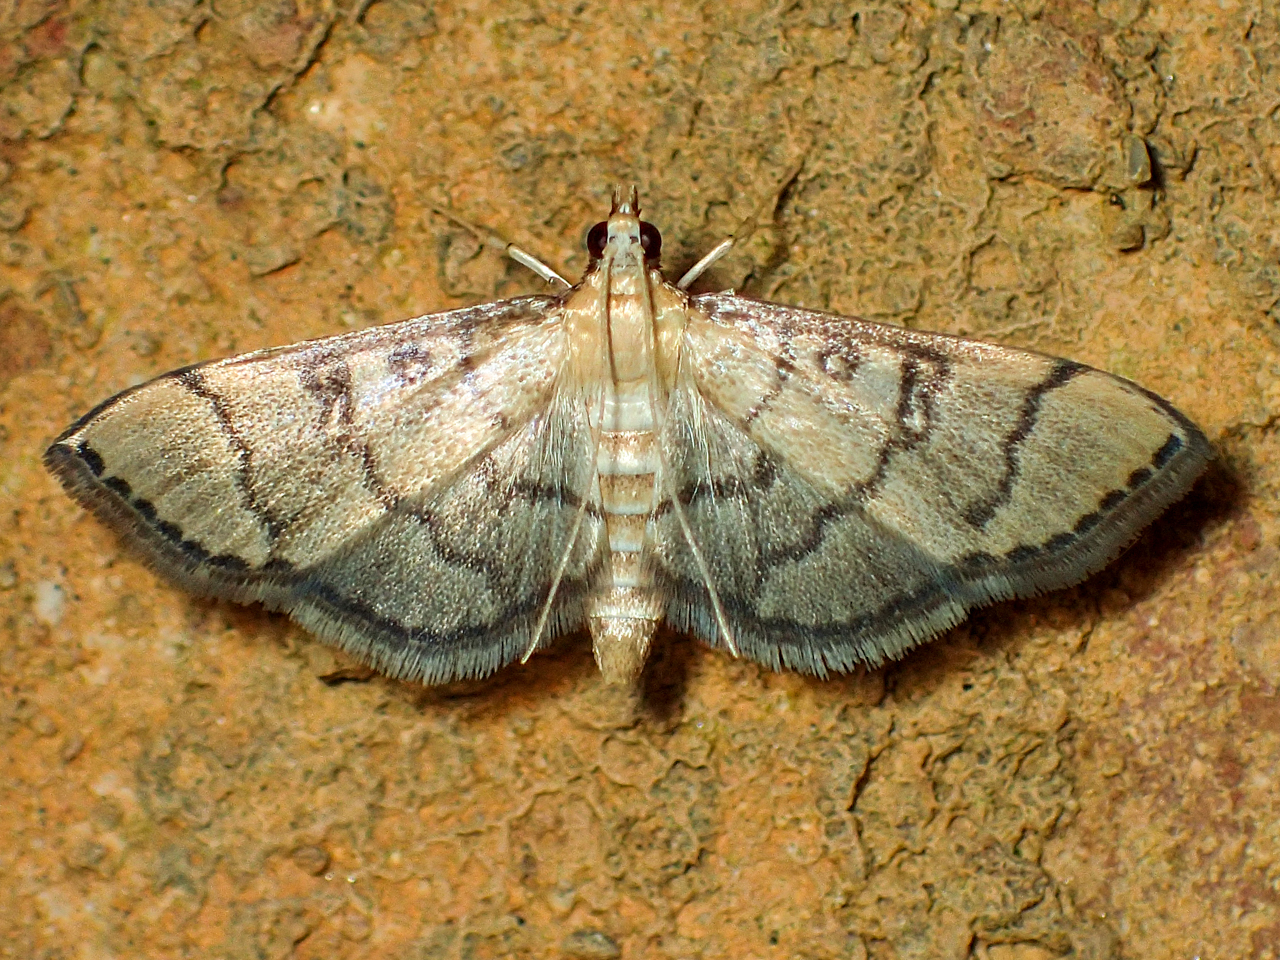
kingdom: Animalia
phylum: Arthropoda
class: Insecta
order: Lepidoptera
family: Crambidae
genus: Lamprosema
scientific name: Lamprosema Blepharomastix ranalis
